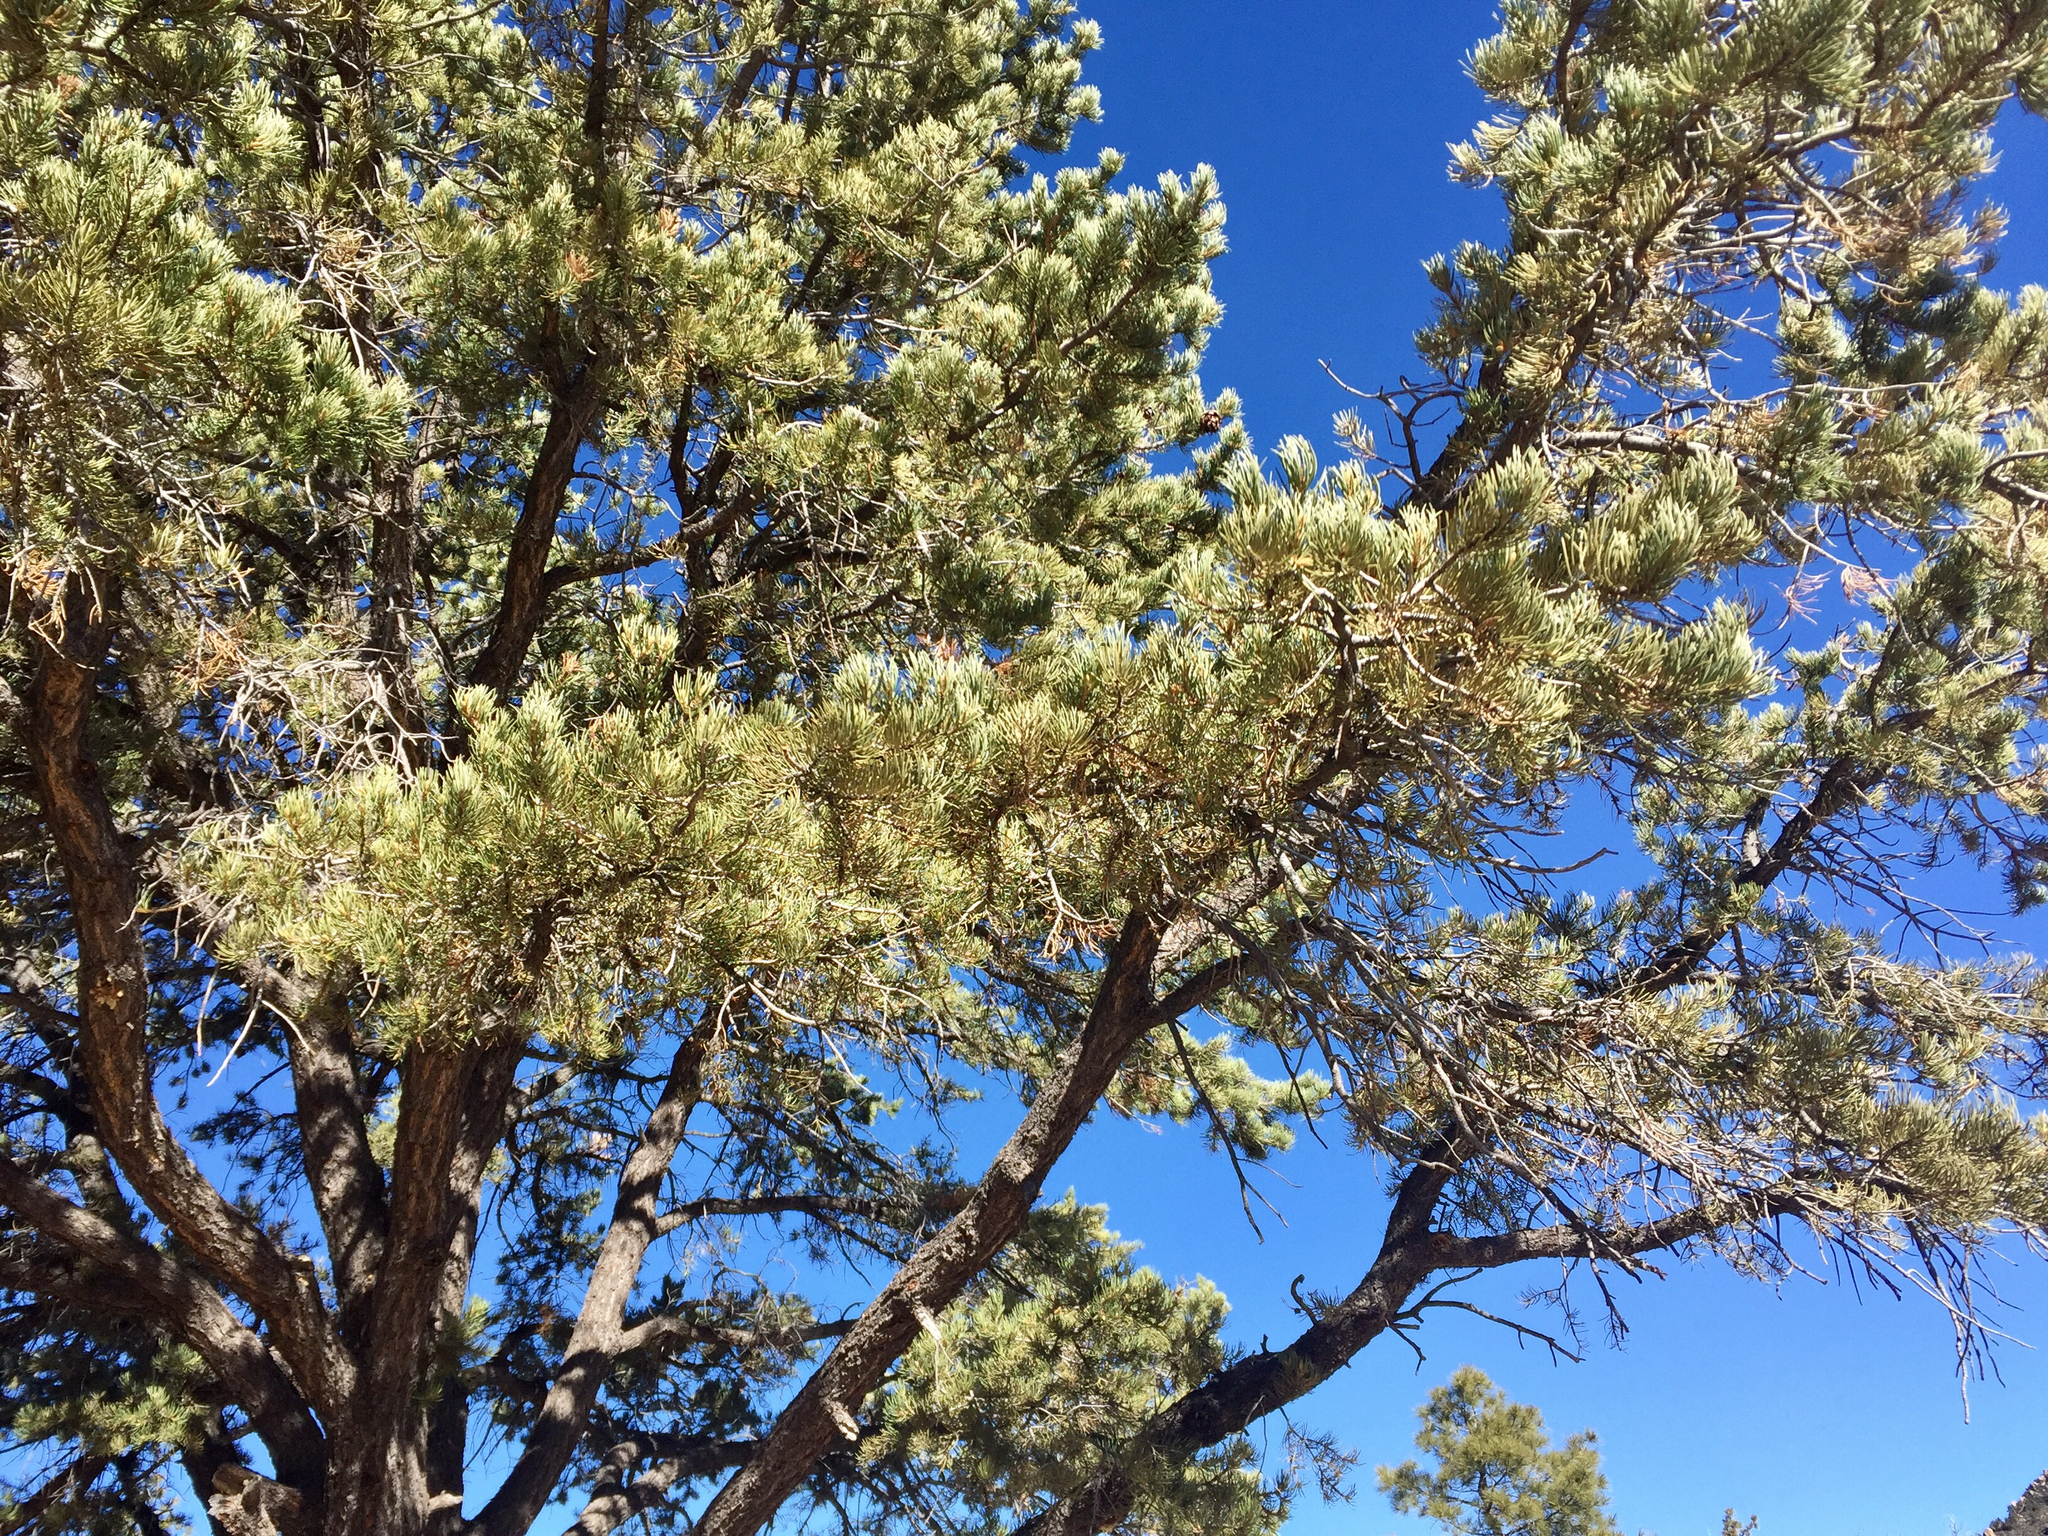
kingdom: Plantae
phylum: Tracheophyta
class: Pinopsida
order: Pinales
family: Pinaceae
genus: Pinus
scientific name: Pinus monophylla
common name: One-leaved nut pine
